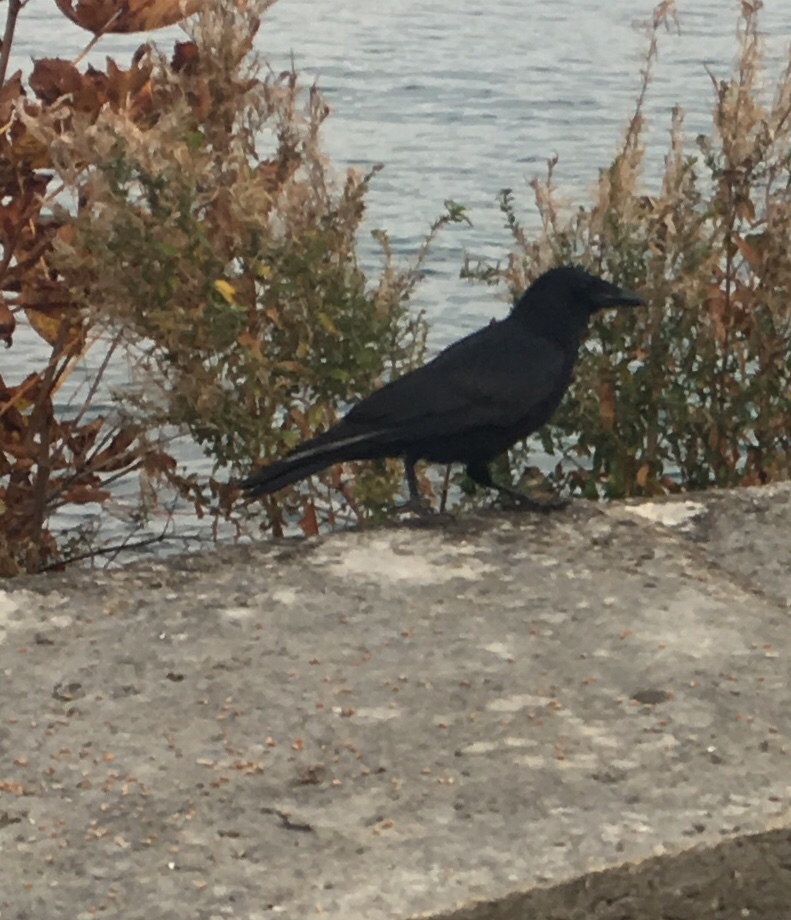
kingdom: Animalia
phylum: Chordata
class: Aves
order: Passeriformes
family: Corvidae
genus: Corvus
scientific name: Corvus corone
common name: Carrion crow
